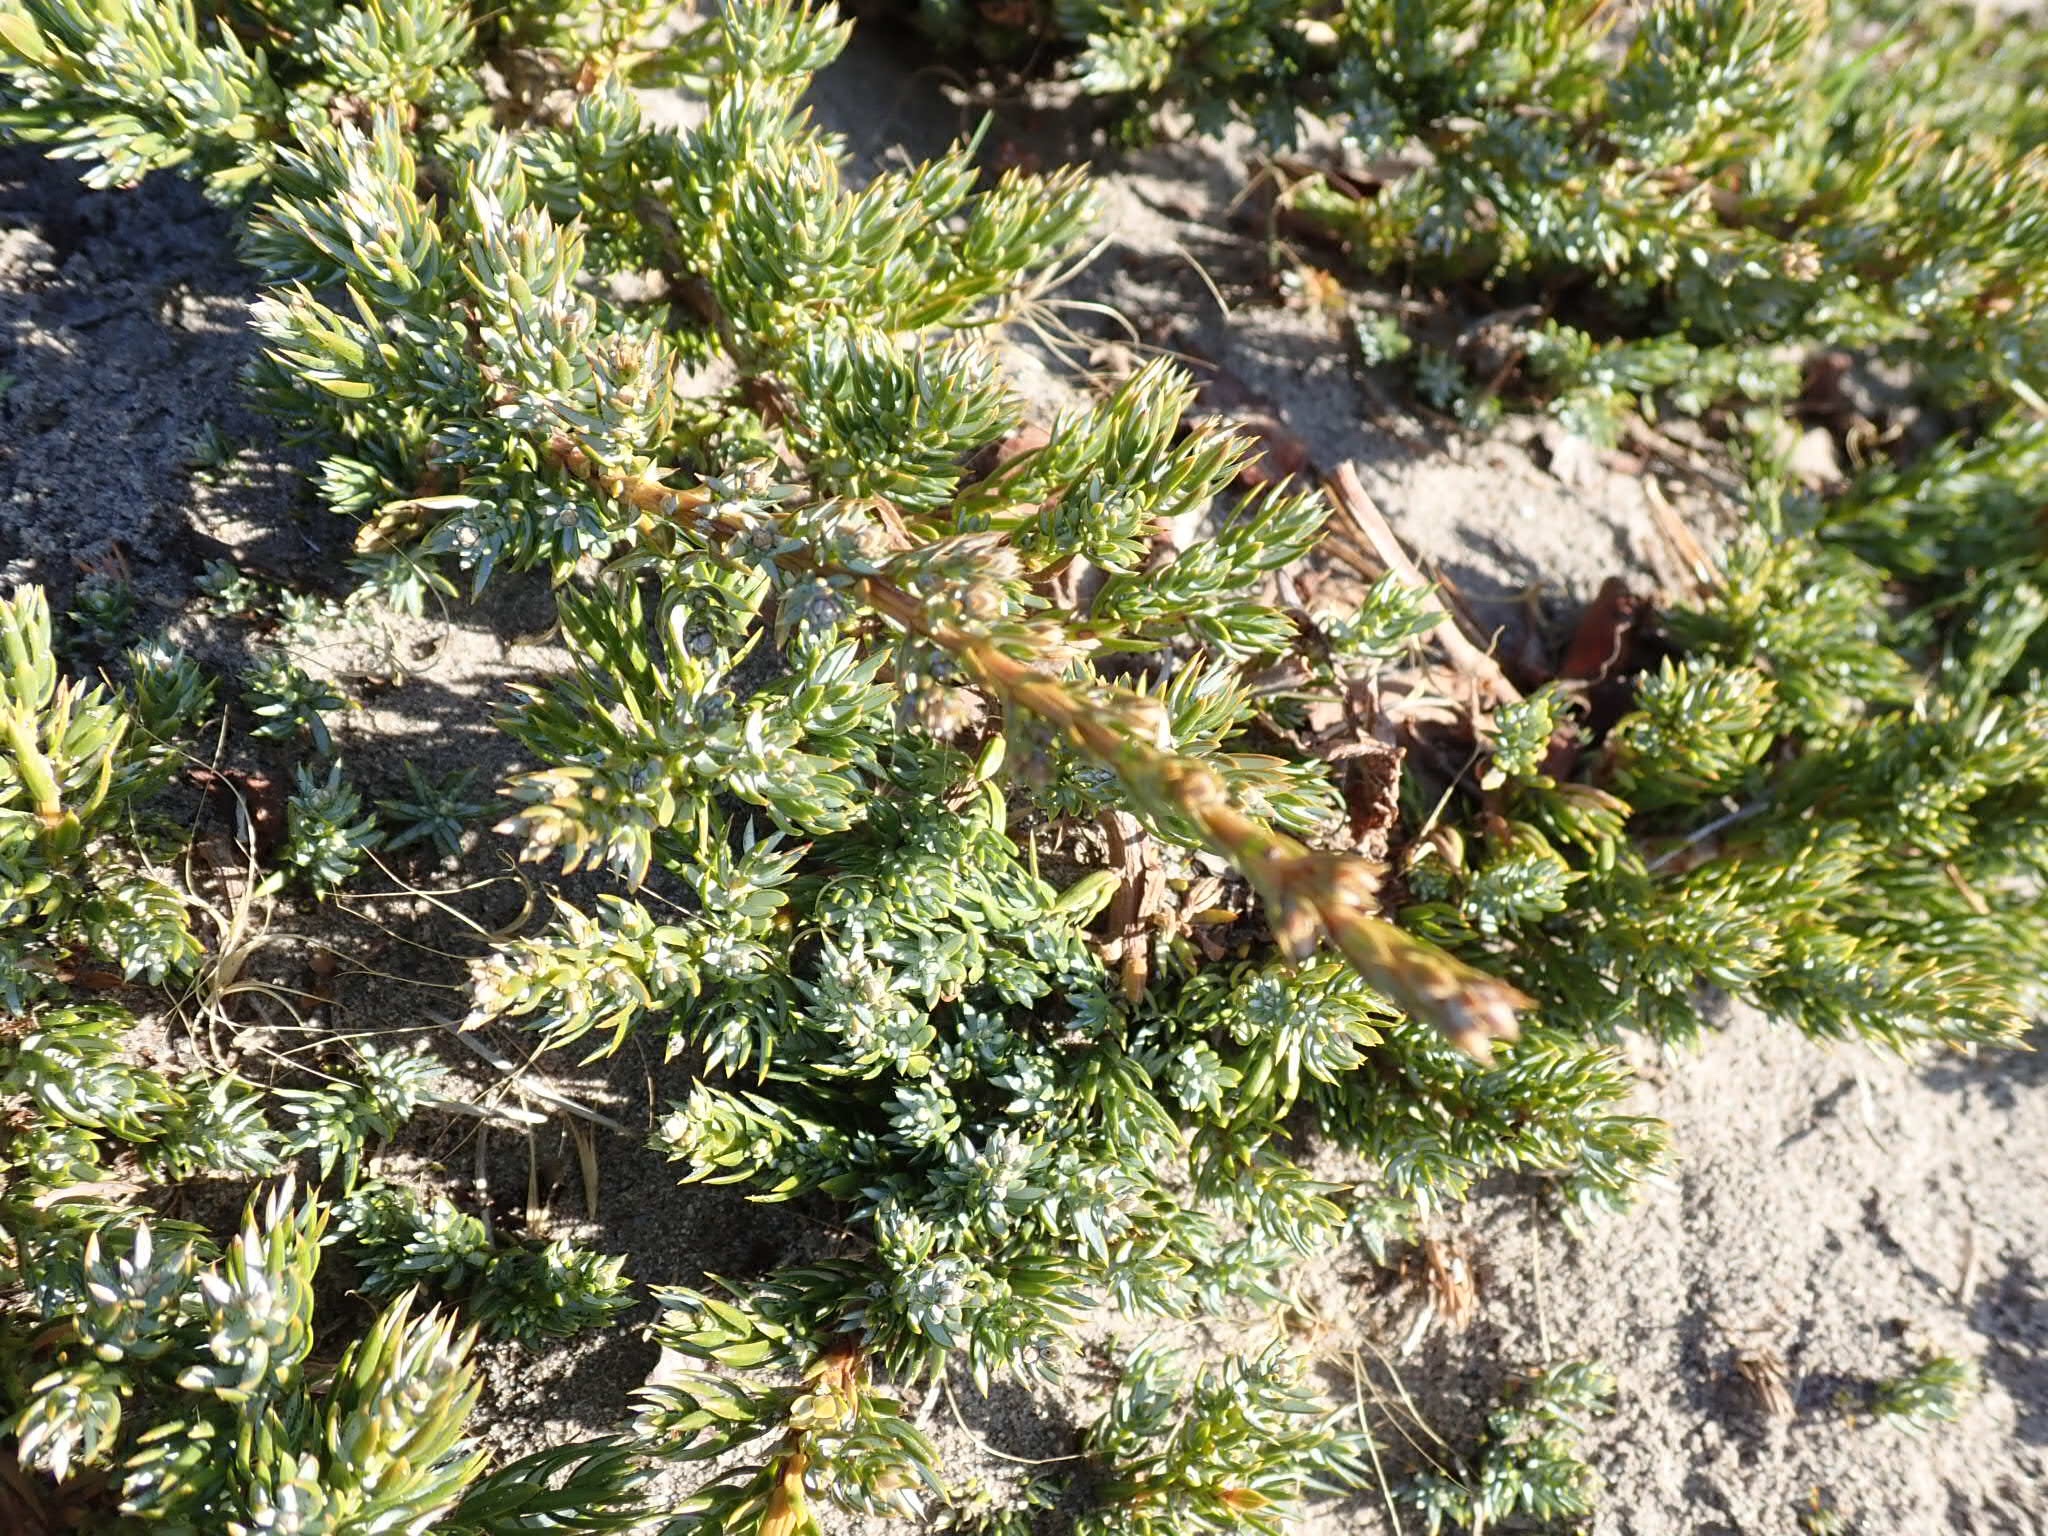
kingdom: Plantae
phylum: Tracheophyta
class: Pinopsida
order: Pinales
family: Cupressaceae
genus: Juniperus
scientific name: Juniperus communis
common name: Common juniper
